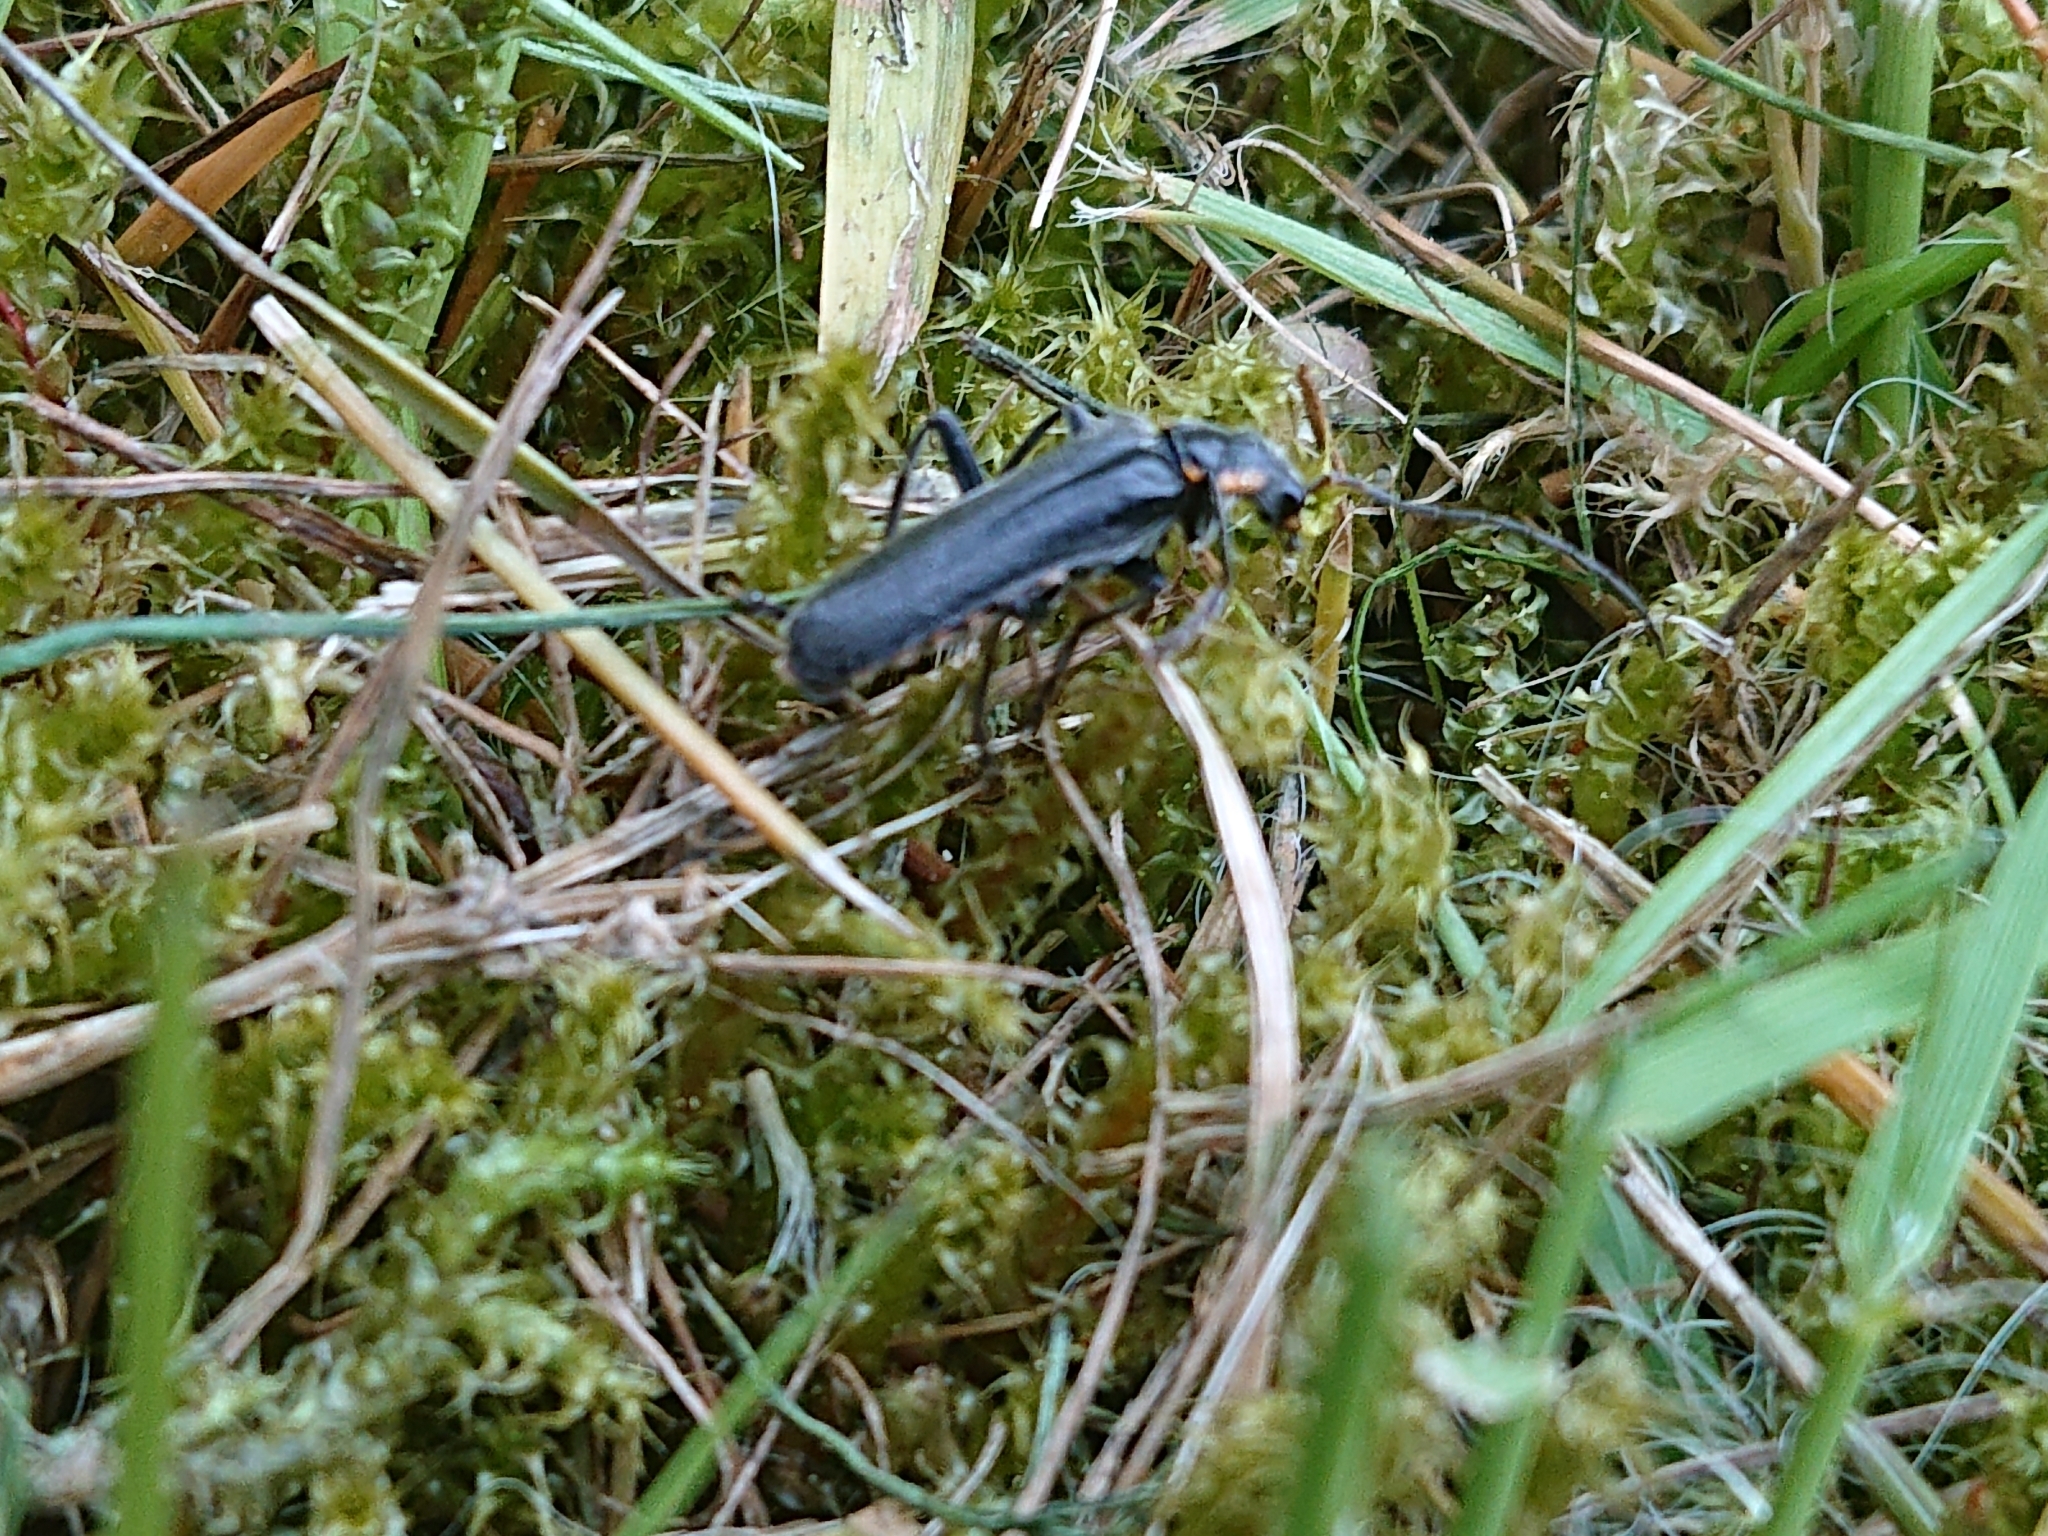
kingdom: Animalia
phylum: Arthropoda
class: Insecta
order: Coleoptera
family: Cantharidae
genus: Cantharis
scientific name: Cantharis obscura
